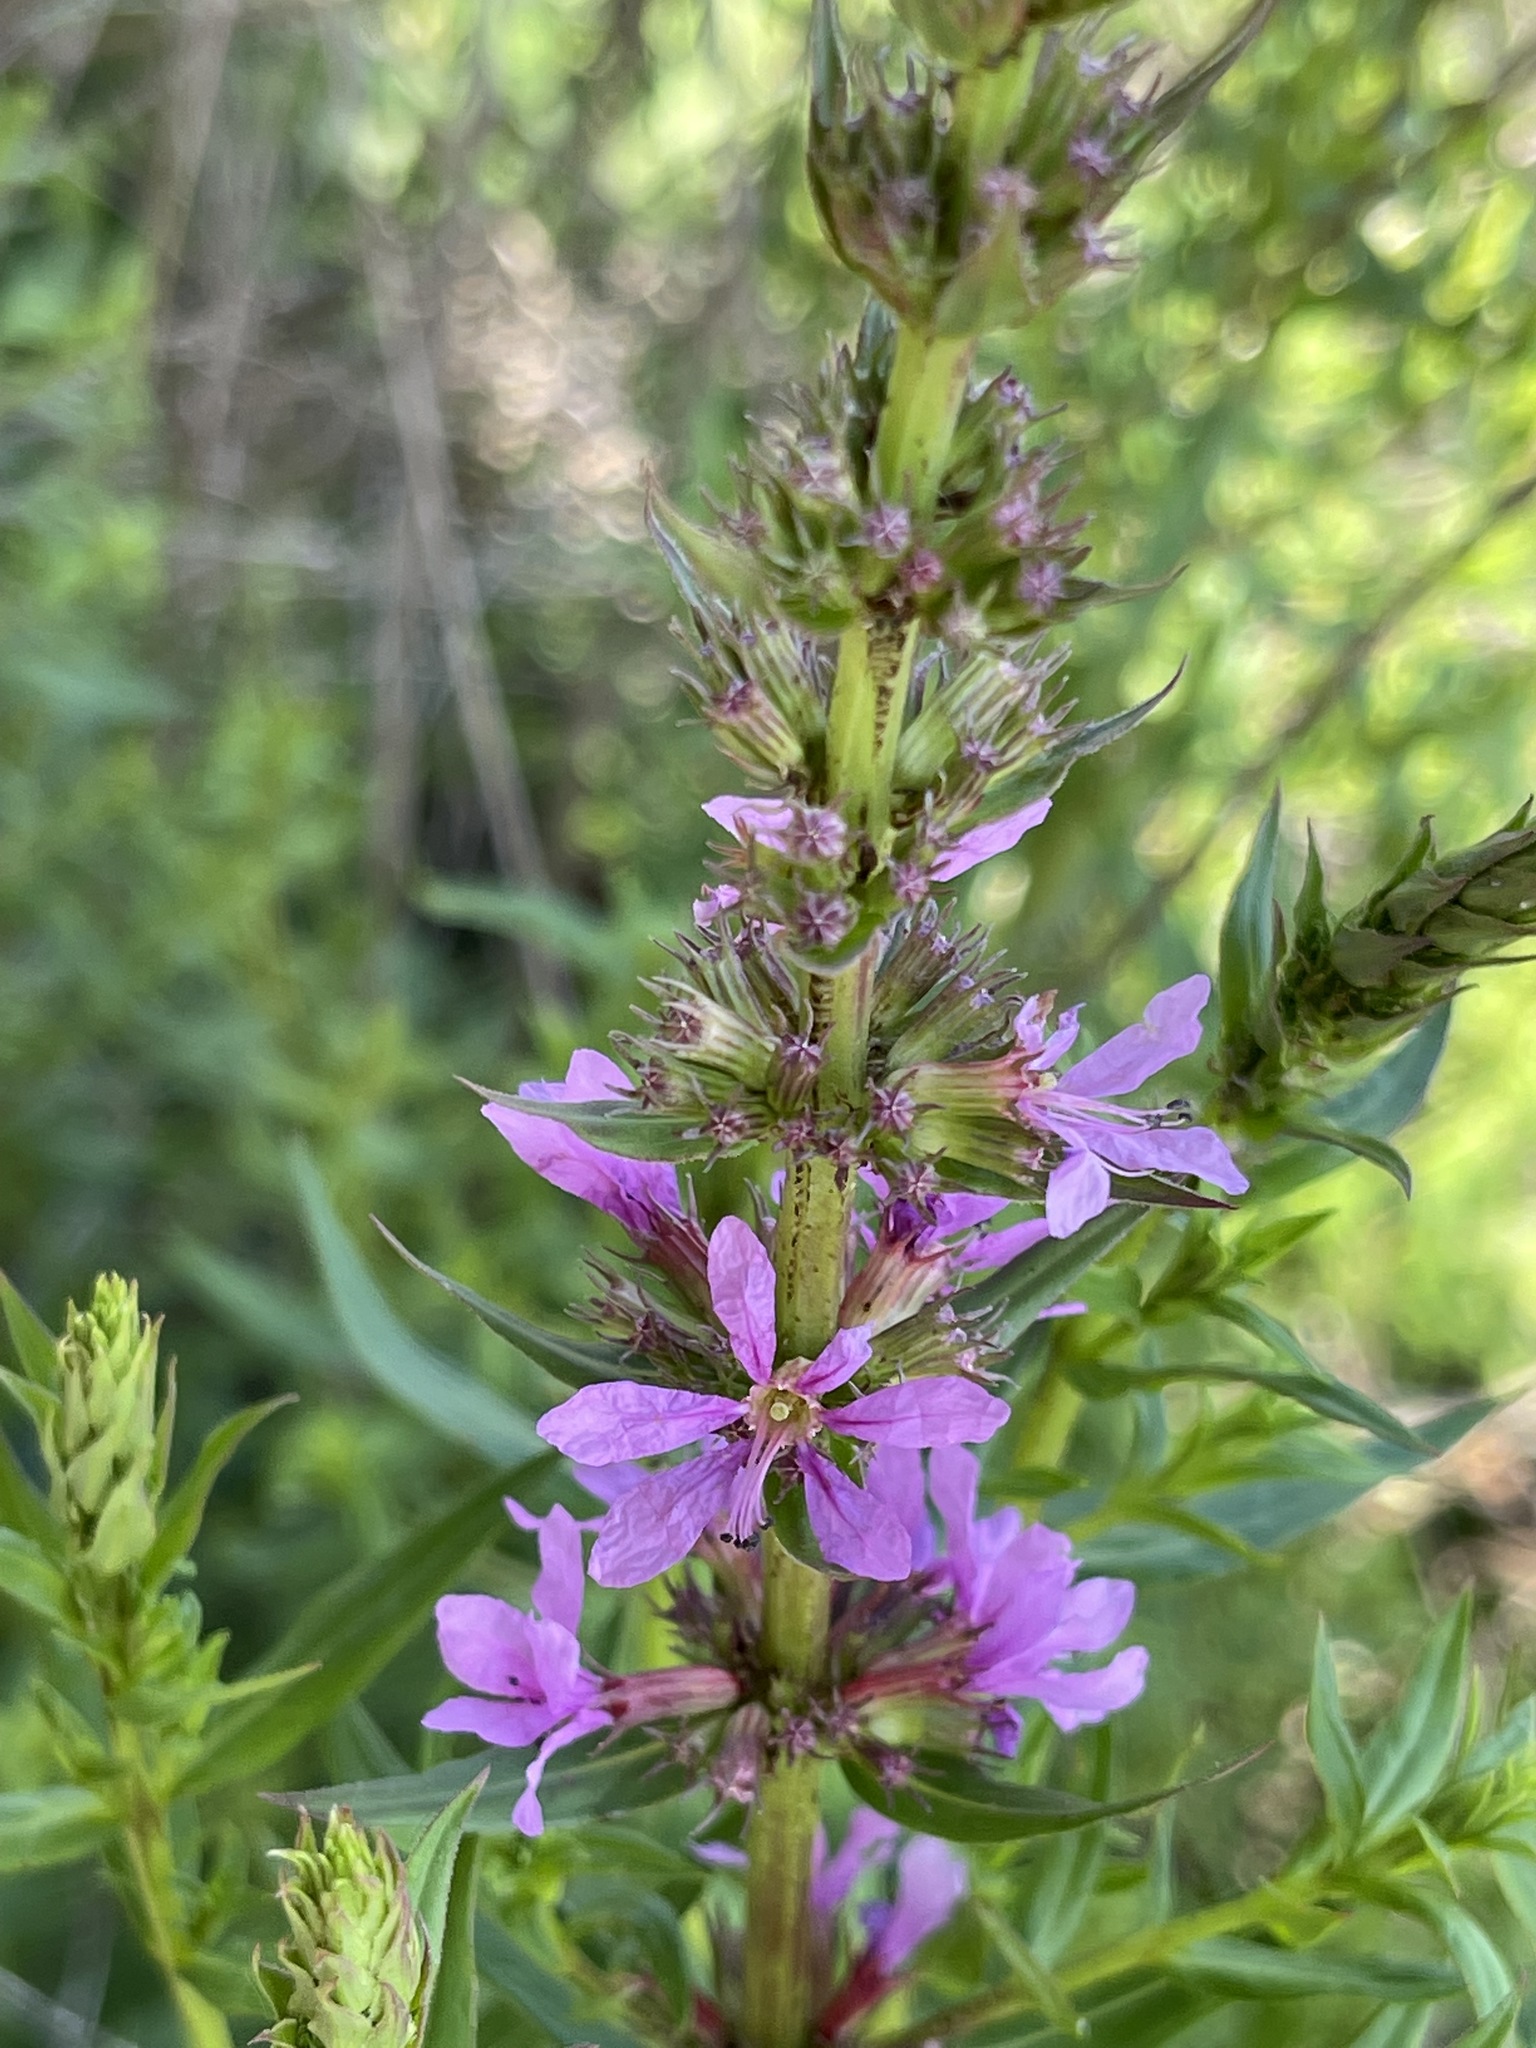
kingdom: Plantae
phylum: Tracheophyta
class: Magnoliopsida
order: Myrtales
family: Lythraceae
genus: Lythrum
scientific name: Lythrum salicaria
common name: Purple loosestrife
